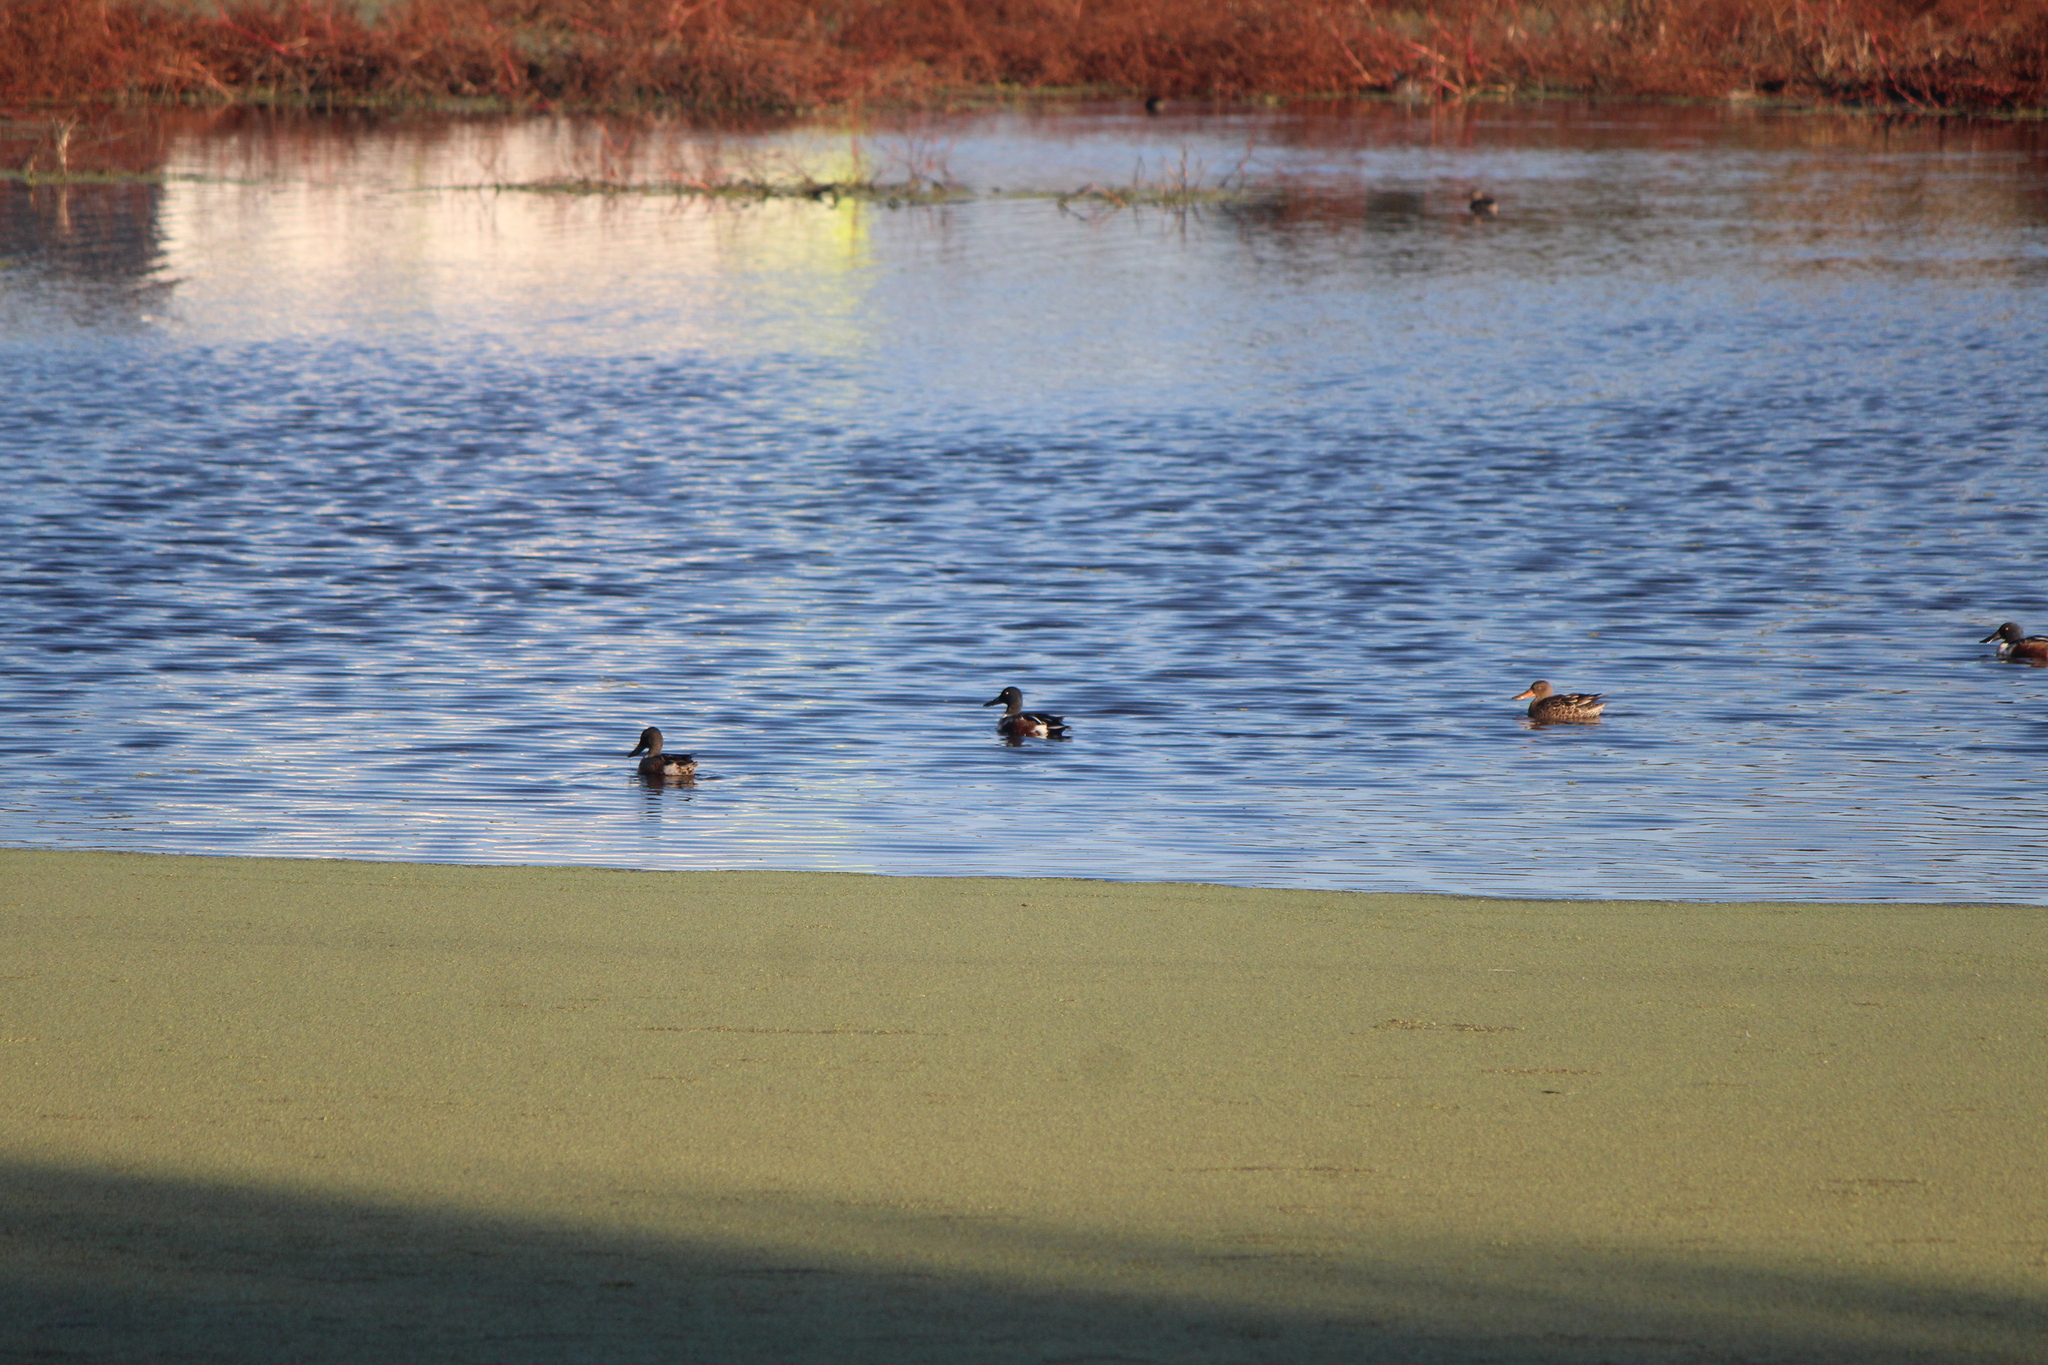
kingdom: Animalia
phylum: Chordata
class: Aves
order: Anseriformes
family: Anatidae
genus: Spatula
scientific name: Spatula clypeata
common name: Northern shoveler
